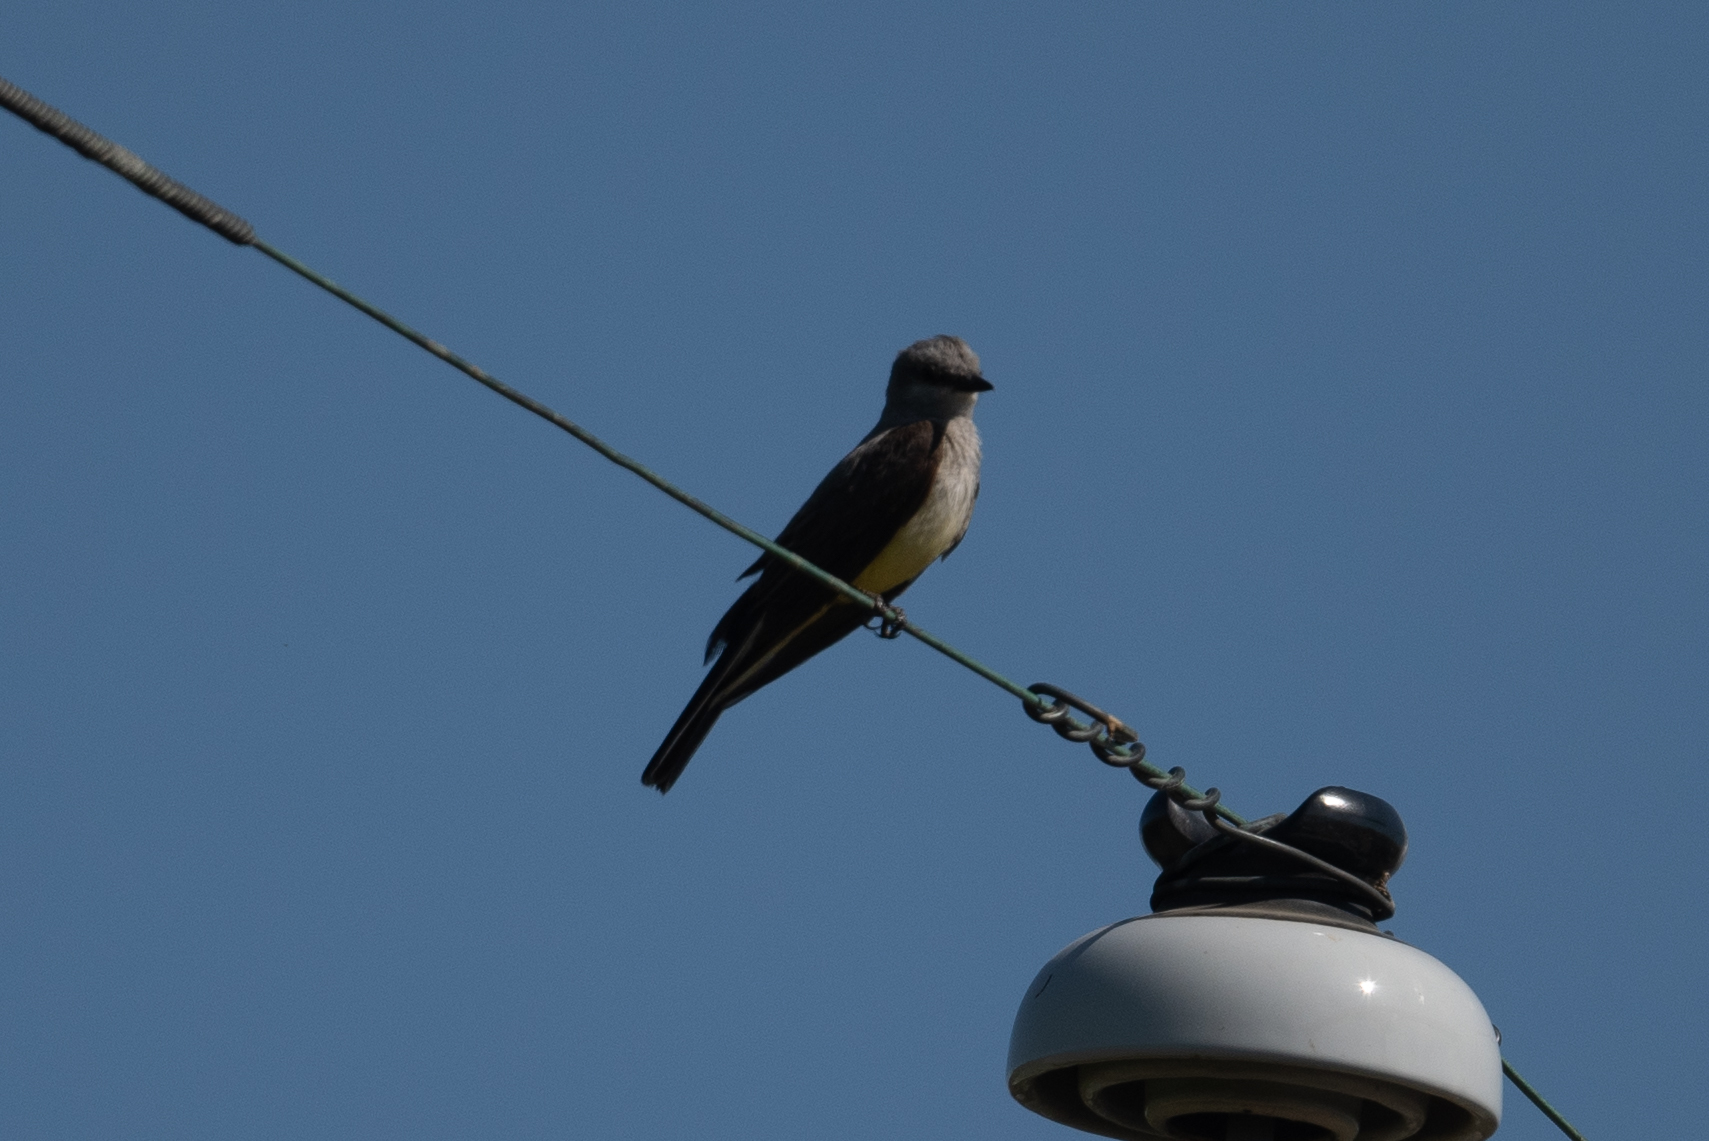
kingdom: Animalia
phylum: Chordata
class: Aves
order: Passeriformes
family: Tyrannidae
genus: Tyrannus
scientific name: Tyrannus verticalis
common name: Western kingbird
